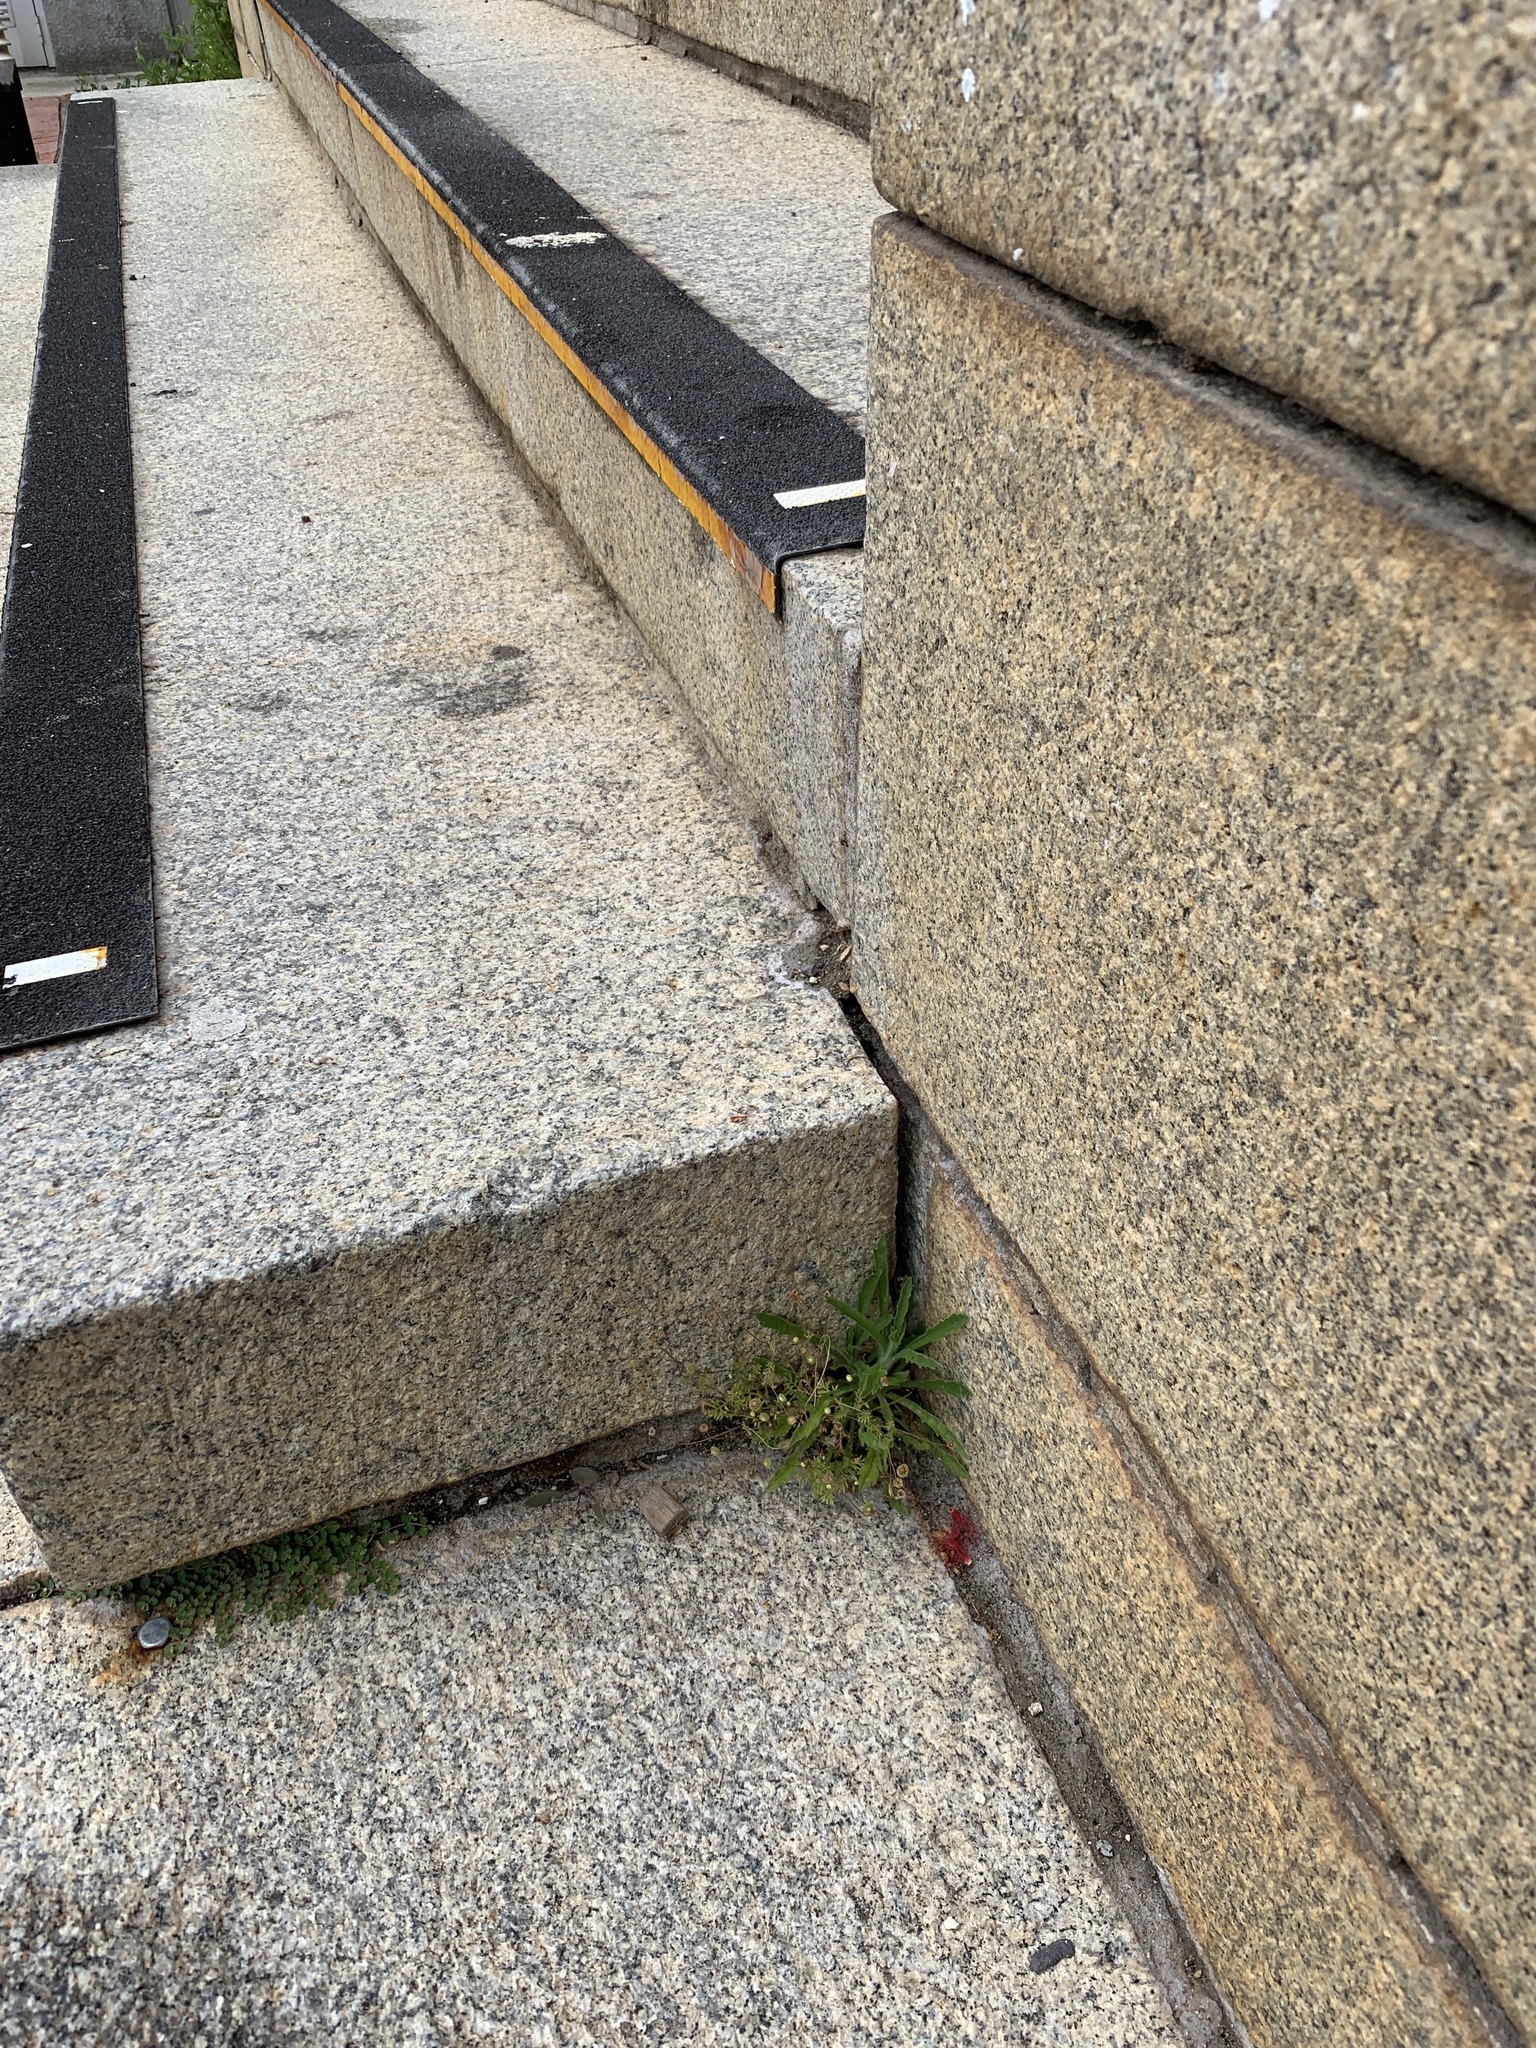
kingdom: Plantae
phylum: Tracheophyta
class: Magnoliopsida
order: Asterales
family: Asteraceae
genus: Cotula
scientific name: Cotula australis
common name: Australian waterbuttons
